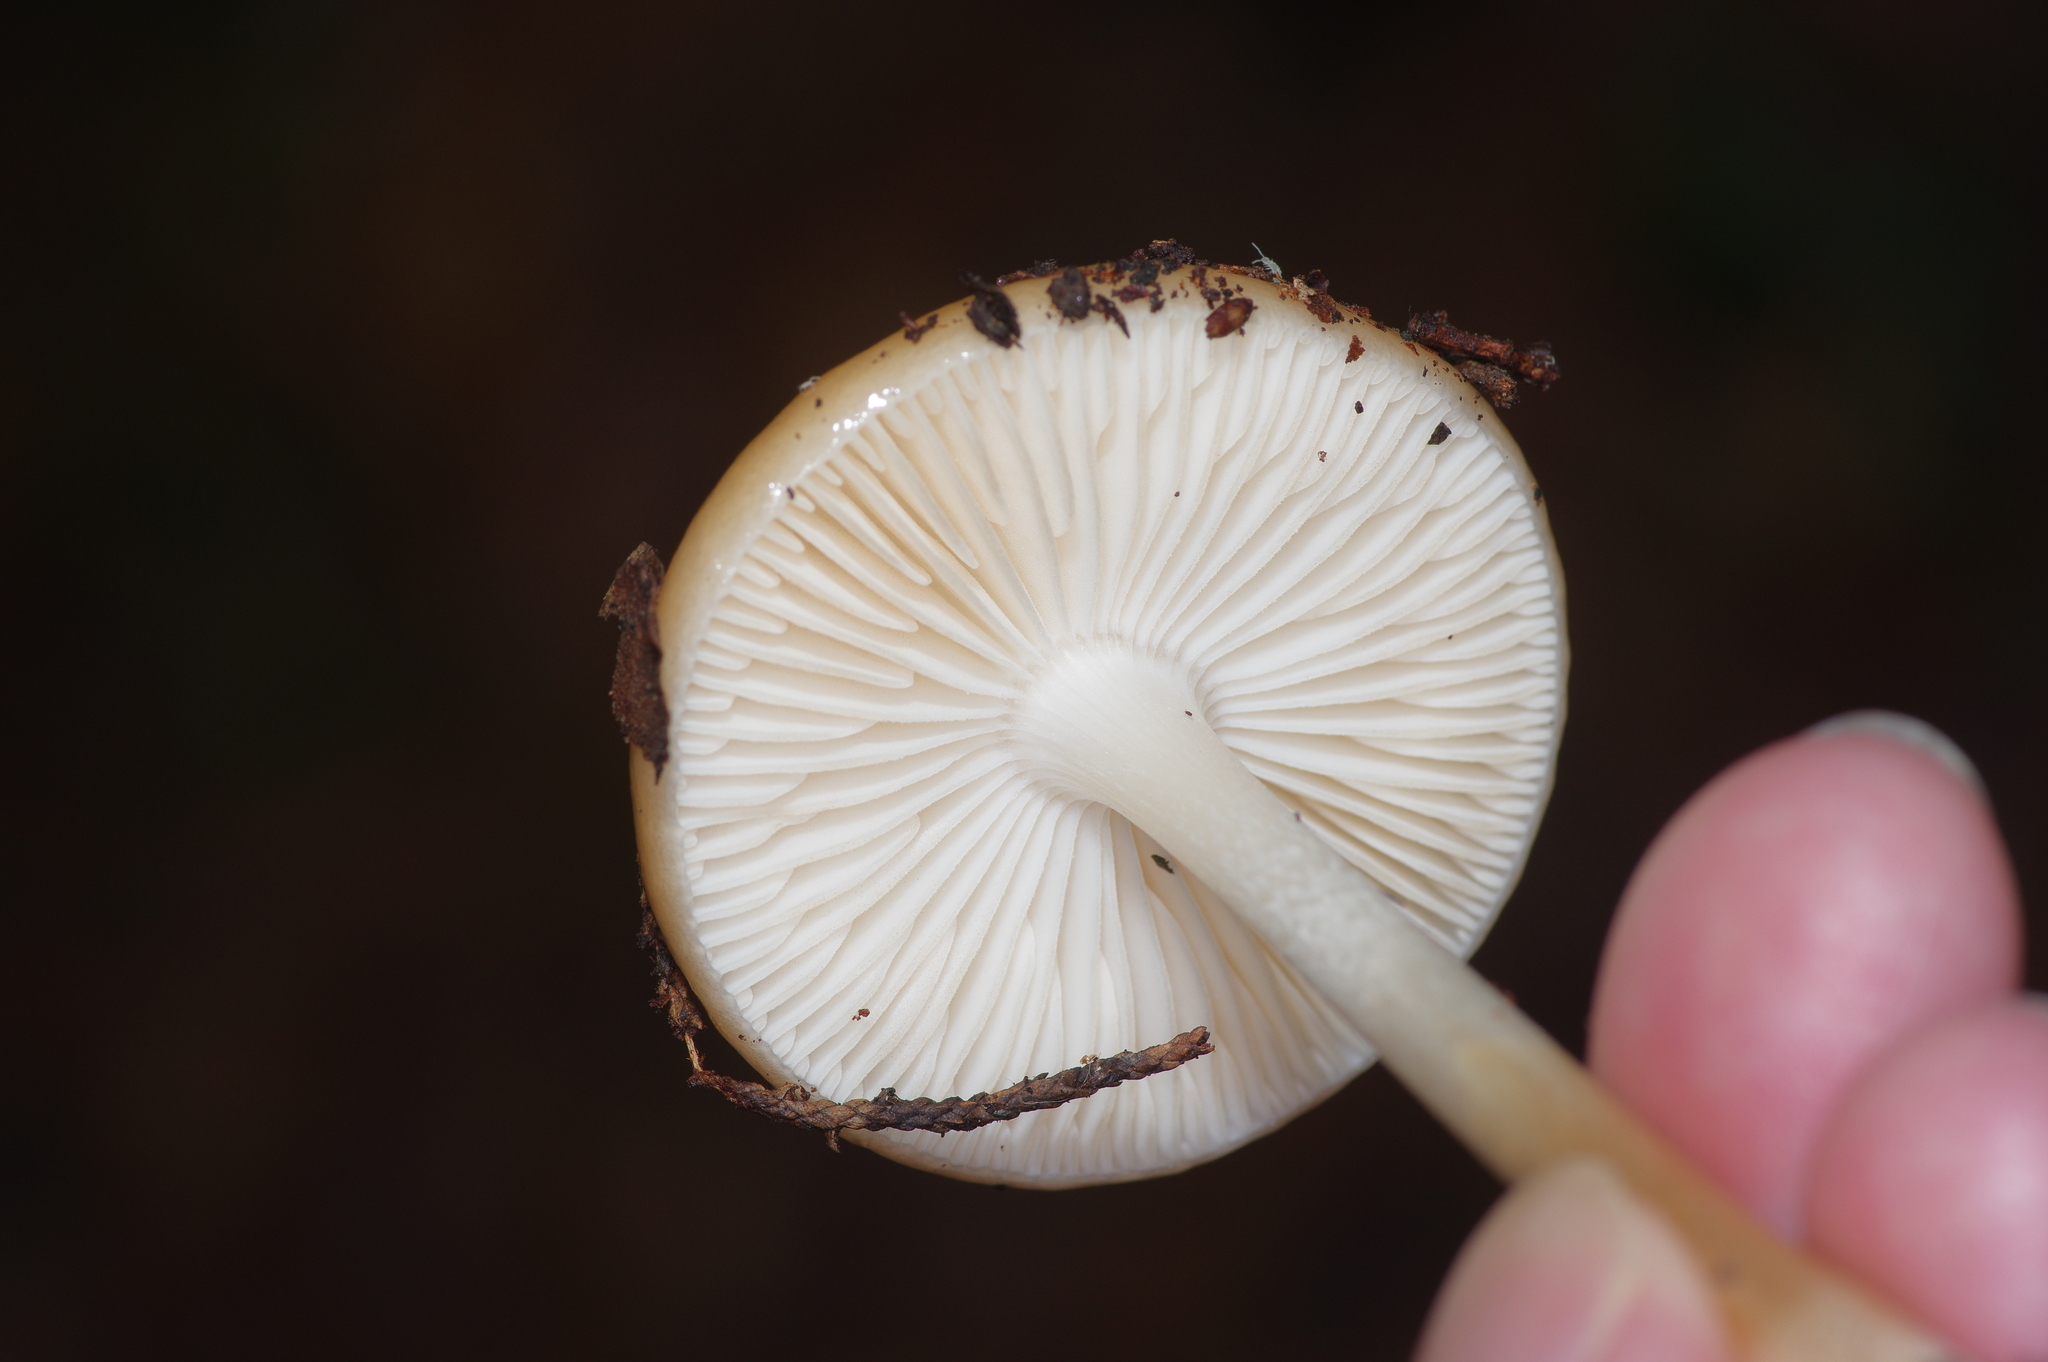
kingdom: Fungi
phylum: Basidiomycota
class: Agaricomycetes
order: Agaricales
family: Physalacriaceae
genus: Hymenopellis
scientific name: Hymenopellis furfuracea
